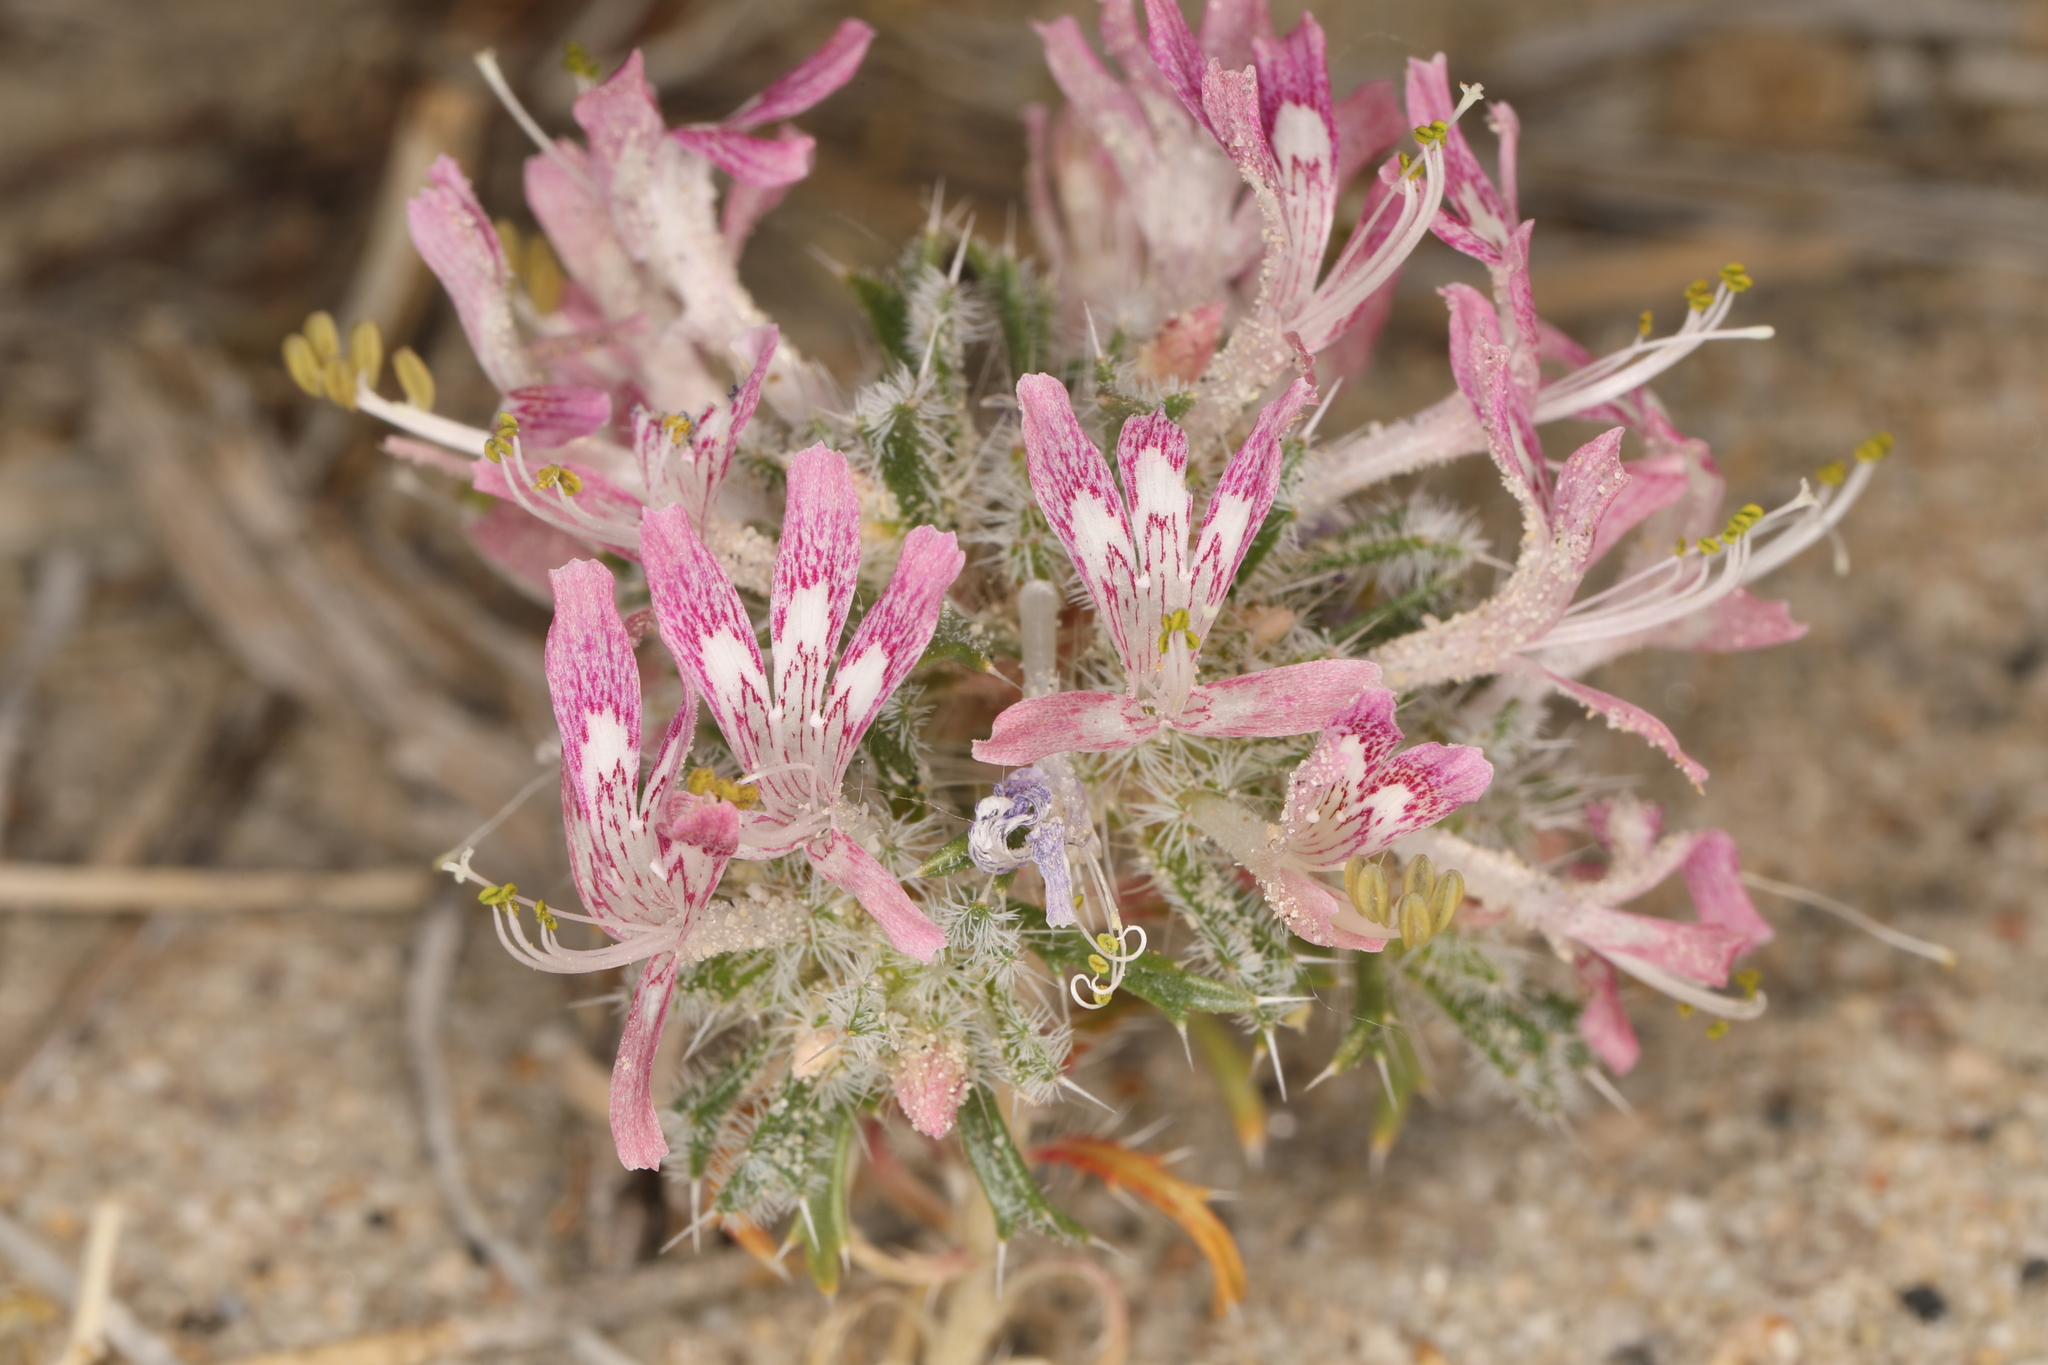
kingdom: Plantae
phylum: Tracheophyta
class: Magnoliopsida
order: Ericales
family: Polemoniaceae
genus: Loeseliastrum
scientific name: Loeseliastrum matthewsii
